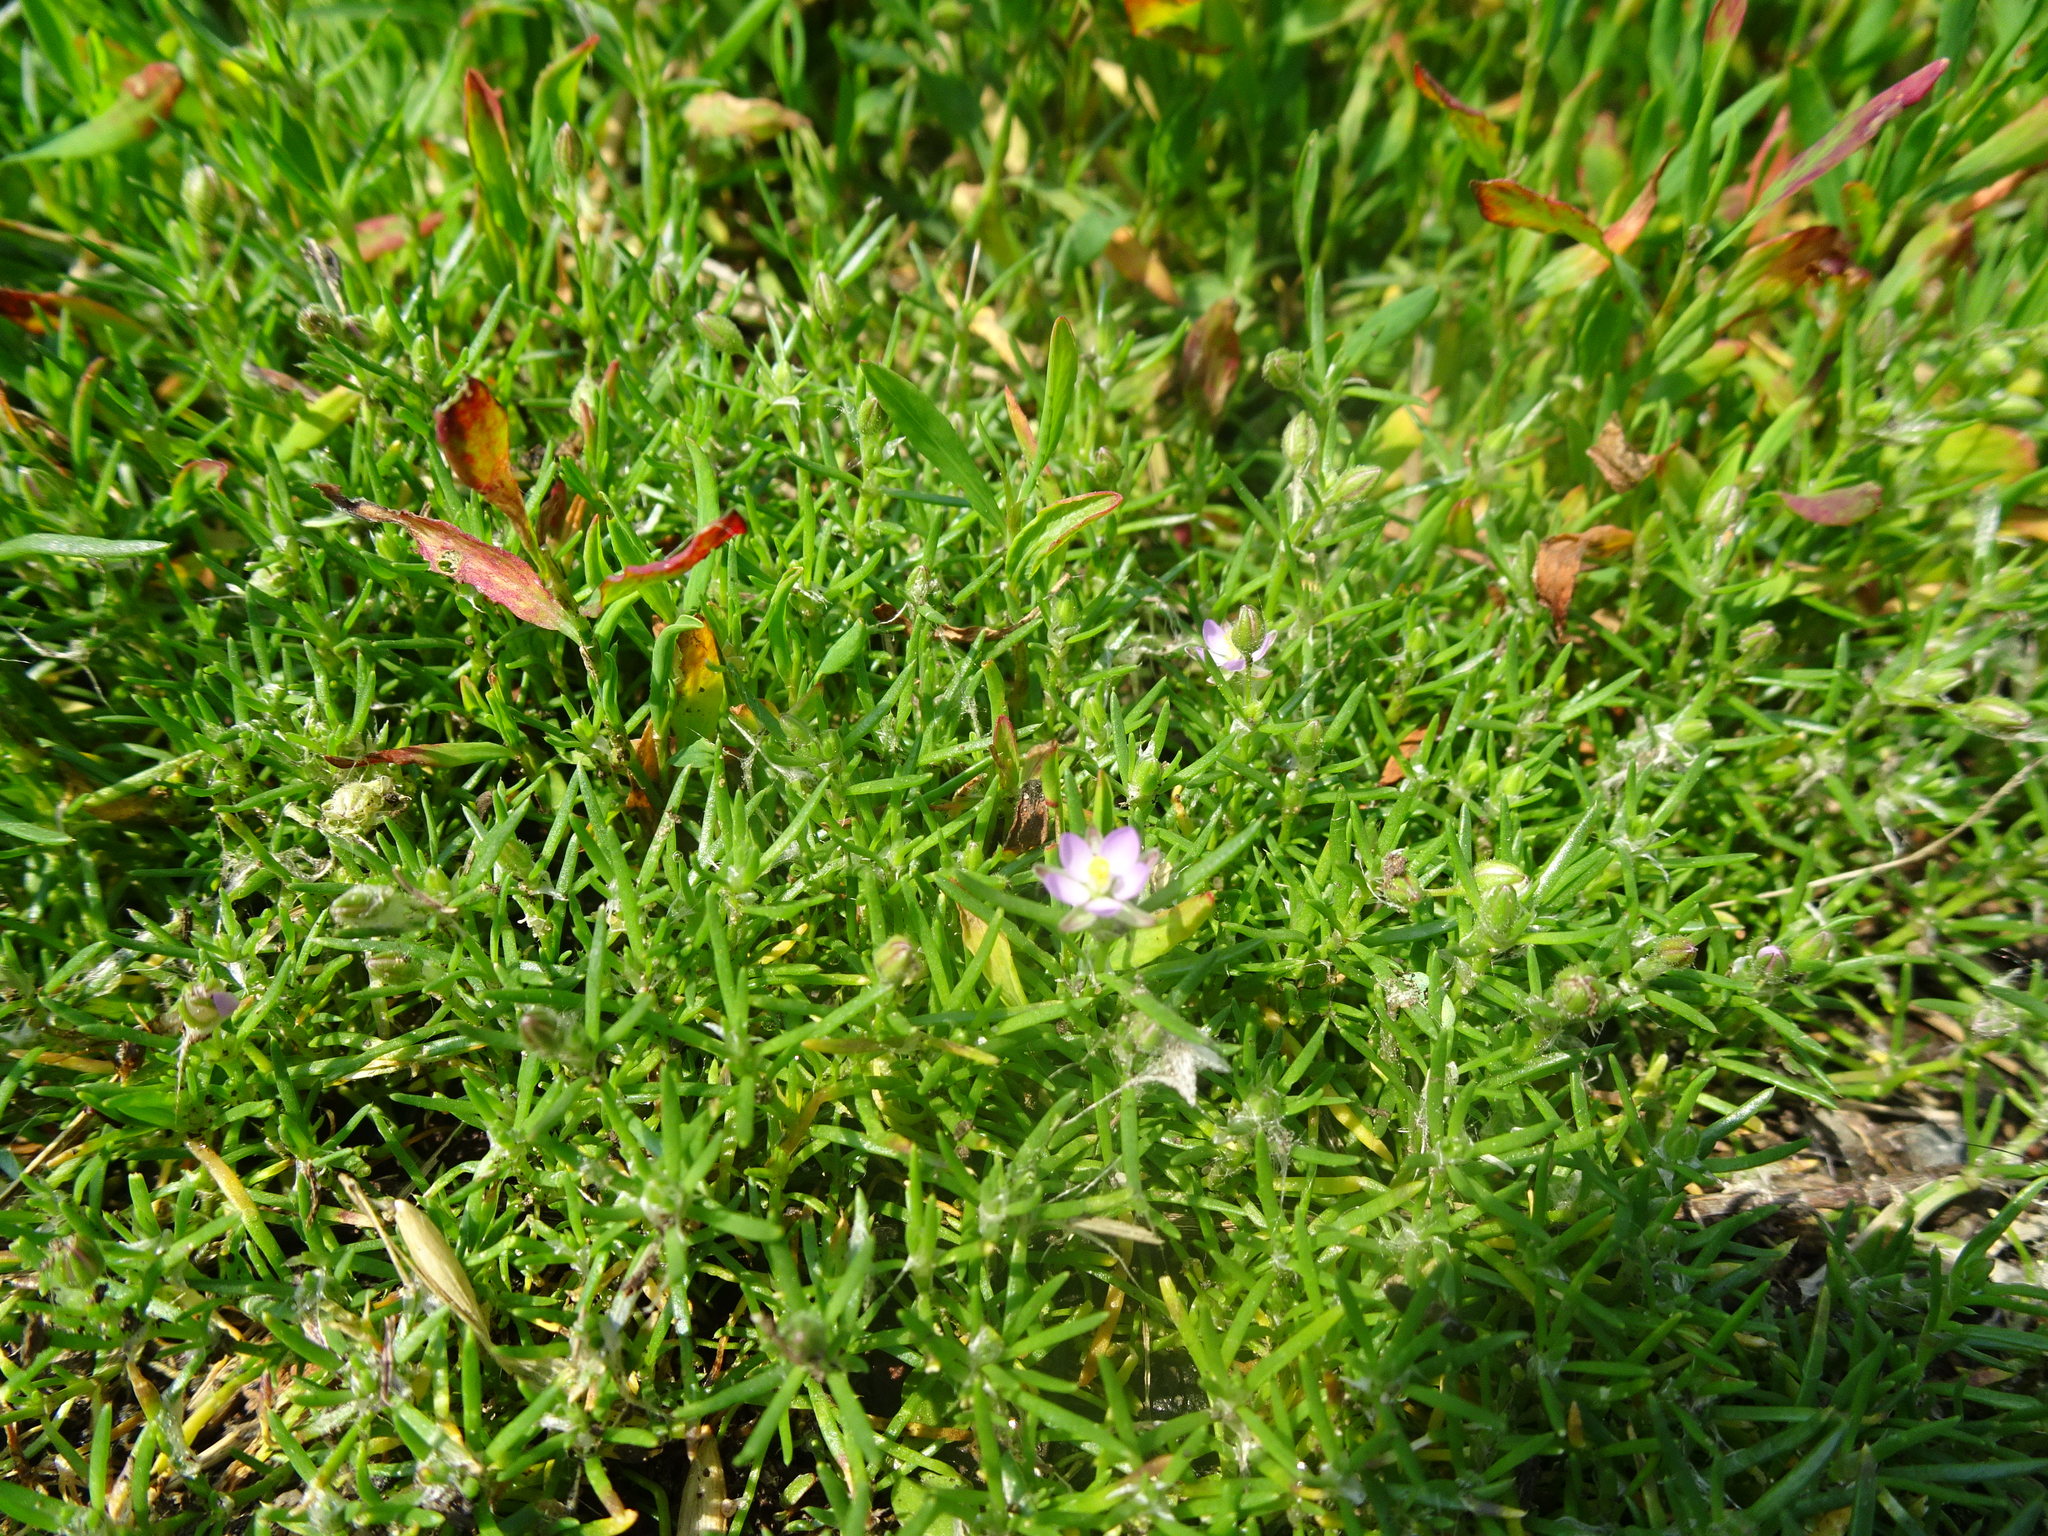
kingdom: Plantae
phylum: Tracheophyta
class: Magnoliopsida
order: Caryophyllales
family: Caryophyllaceae
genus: Spergularia
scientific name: Spergularia rubra
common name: Red sand-spurrey
